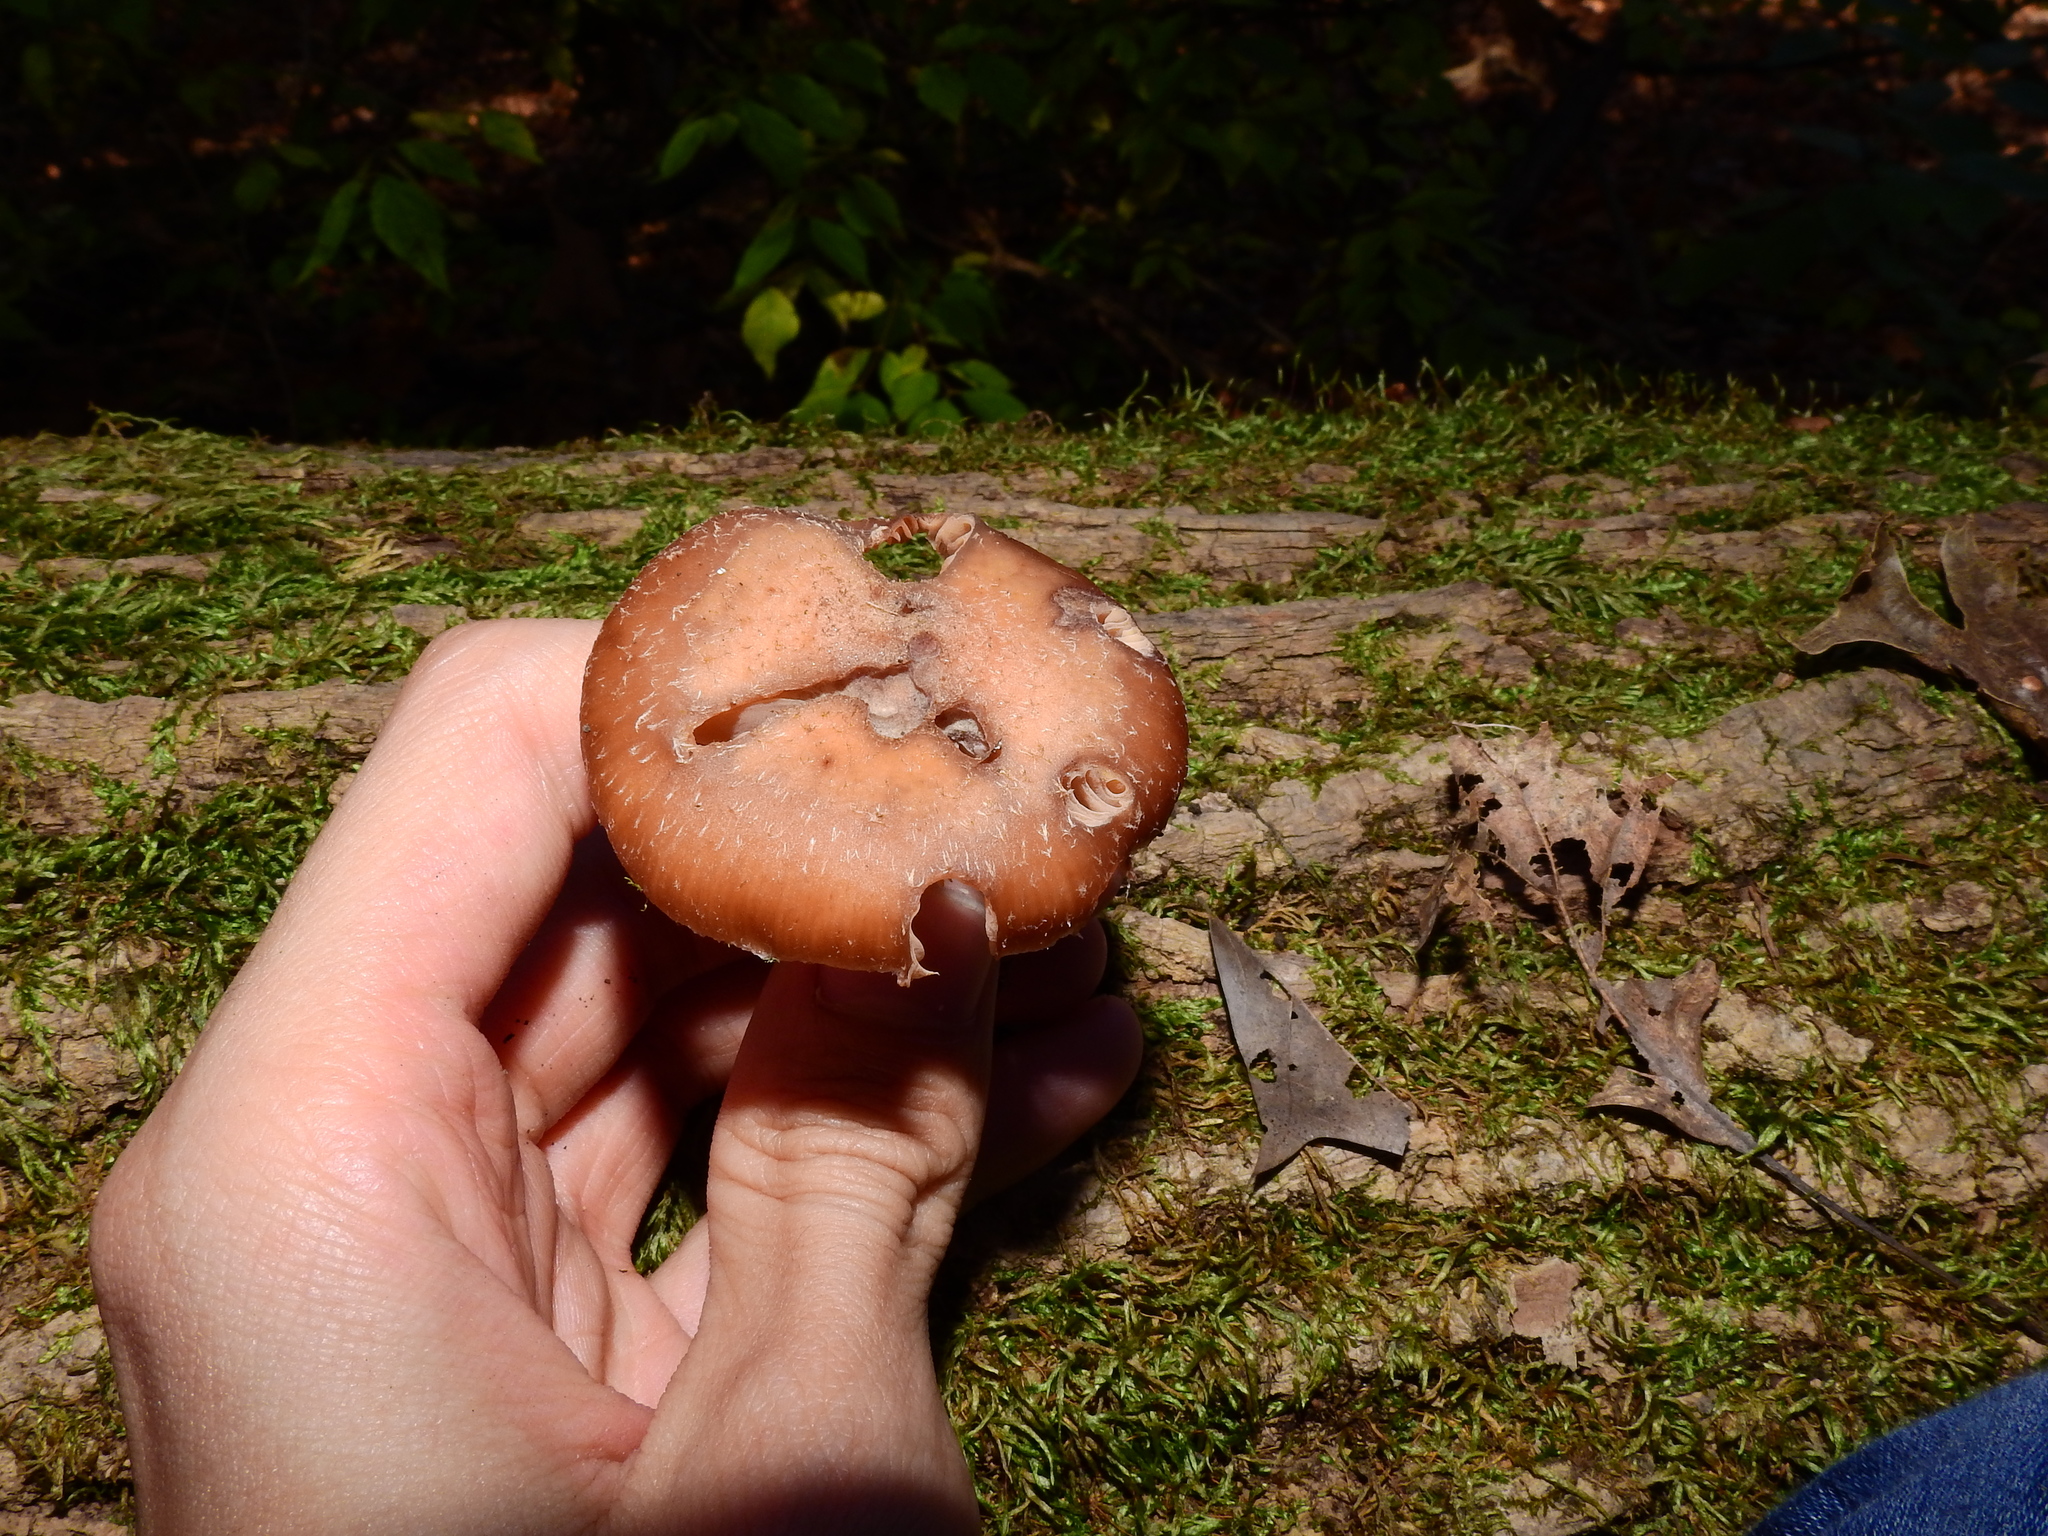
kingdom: Fungi
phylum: Basidiomycota
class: Agaricomycetes
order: Agaricales
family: Physalacriaceae
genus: Armillaria
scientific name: Armillaria gallica
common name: Bulbous honey fungus
